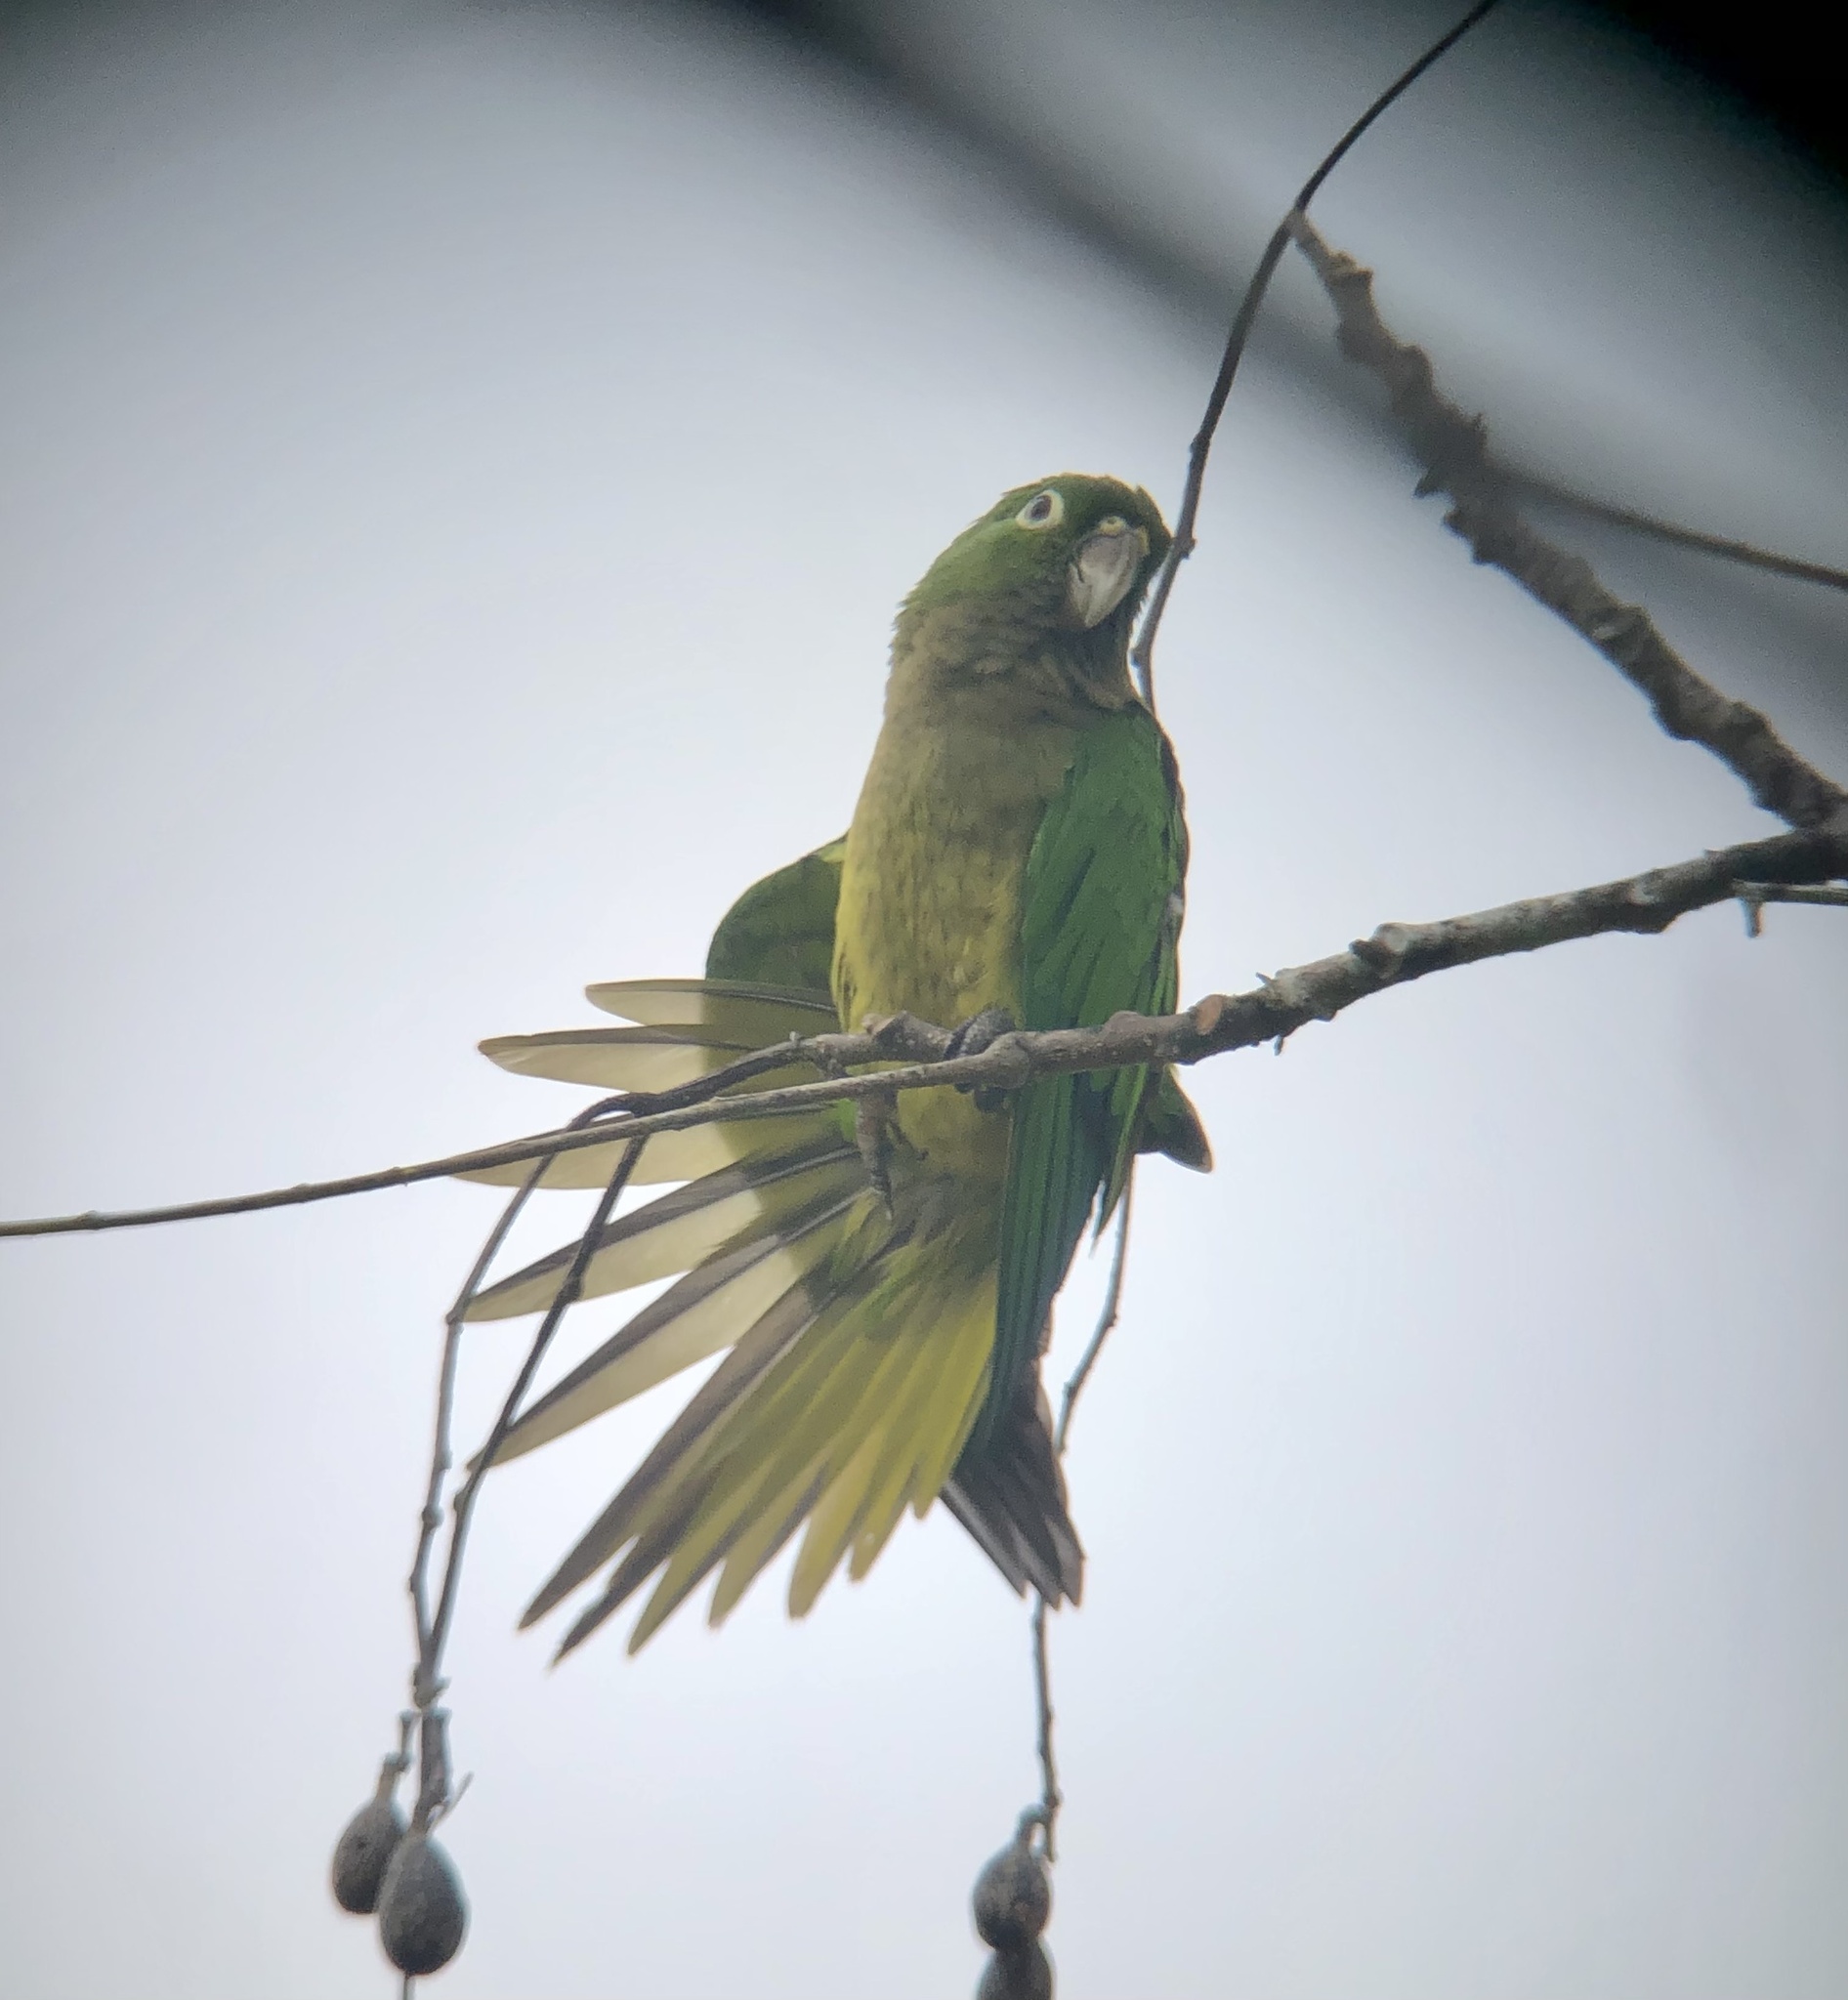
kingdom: Animalia
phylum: Chordata
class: Aves
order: Psittaciformes
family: Psittacidae
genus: Aratinga
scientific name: Aratinga nana
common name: Olive-throated parakeet
